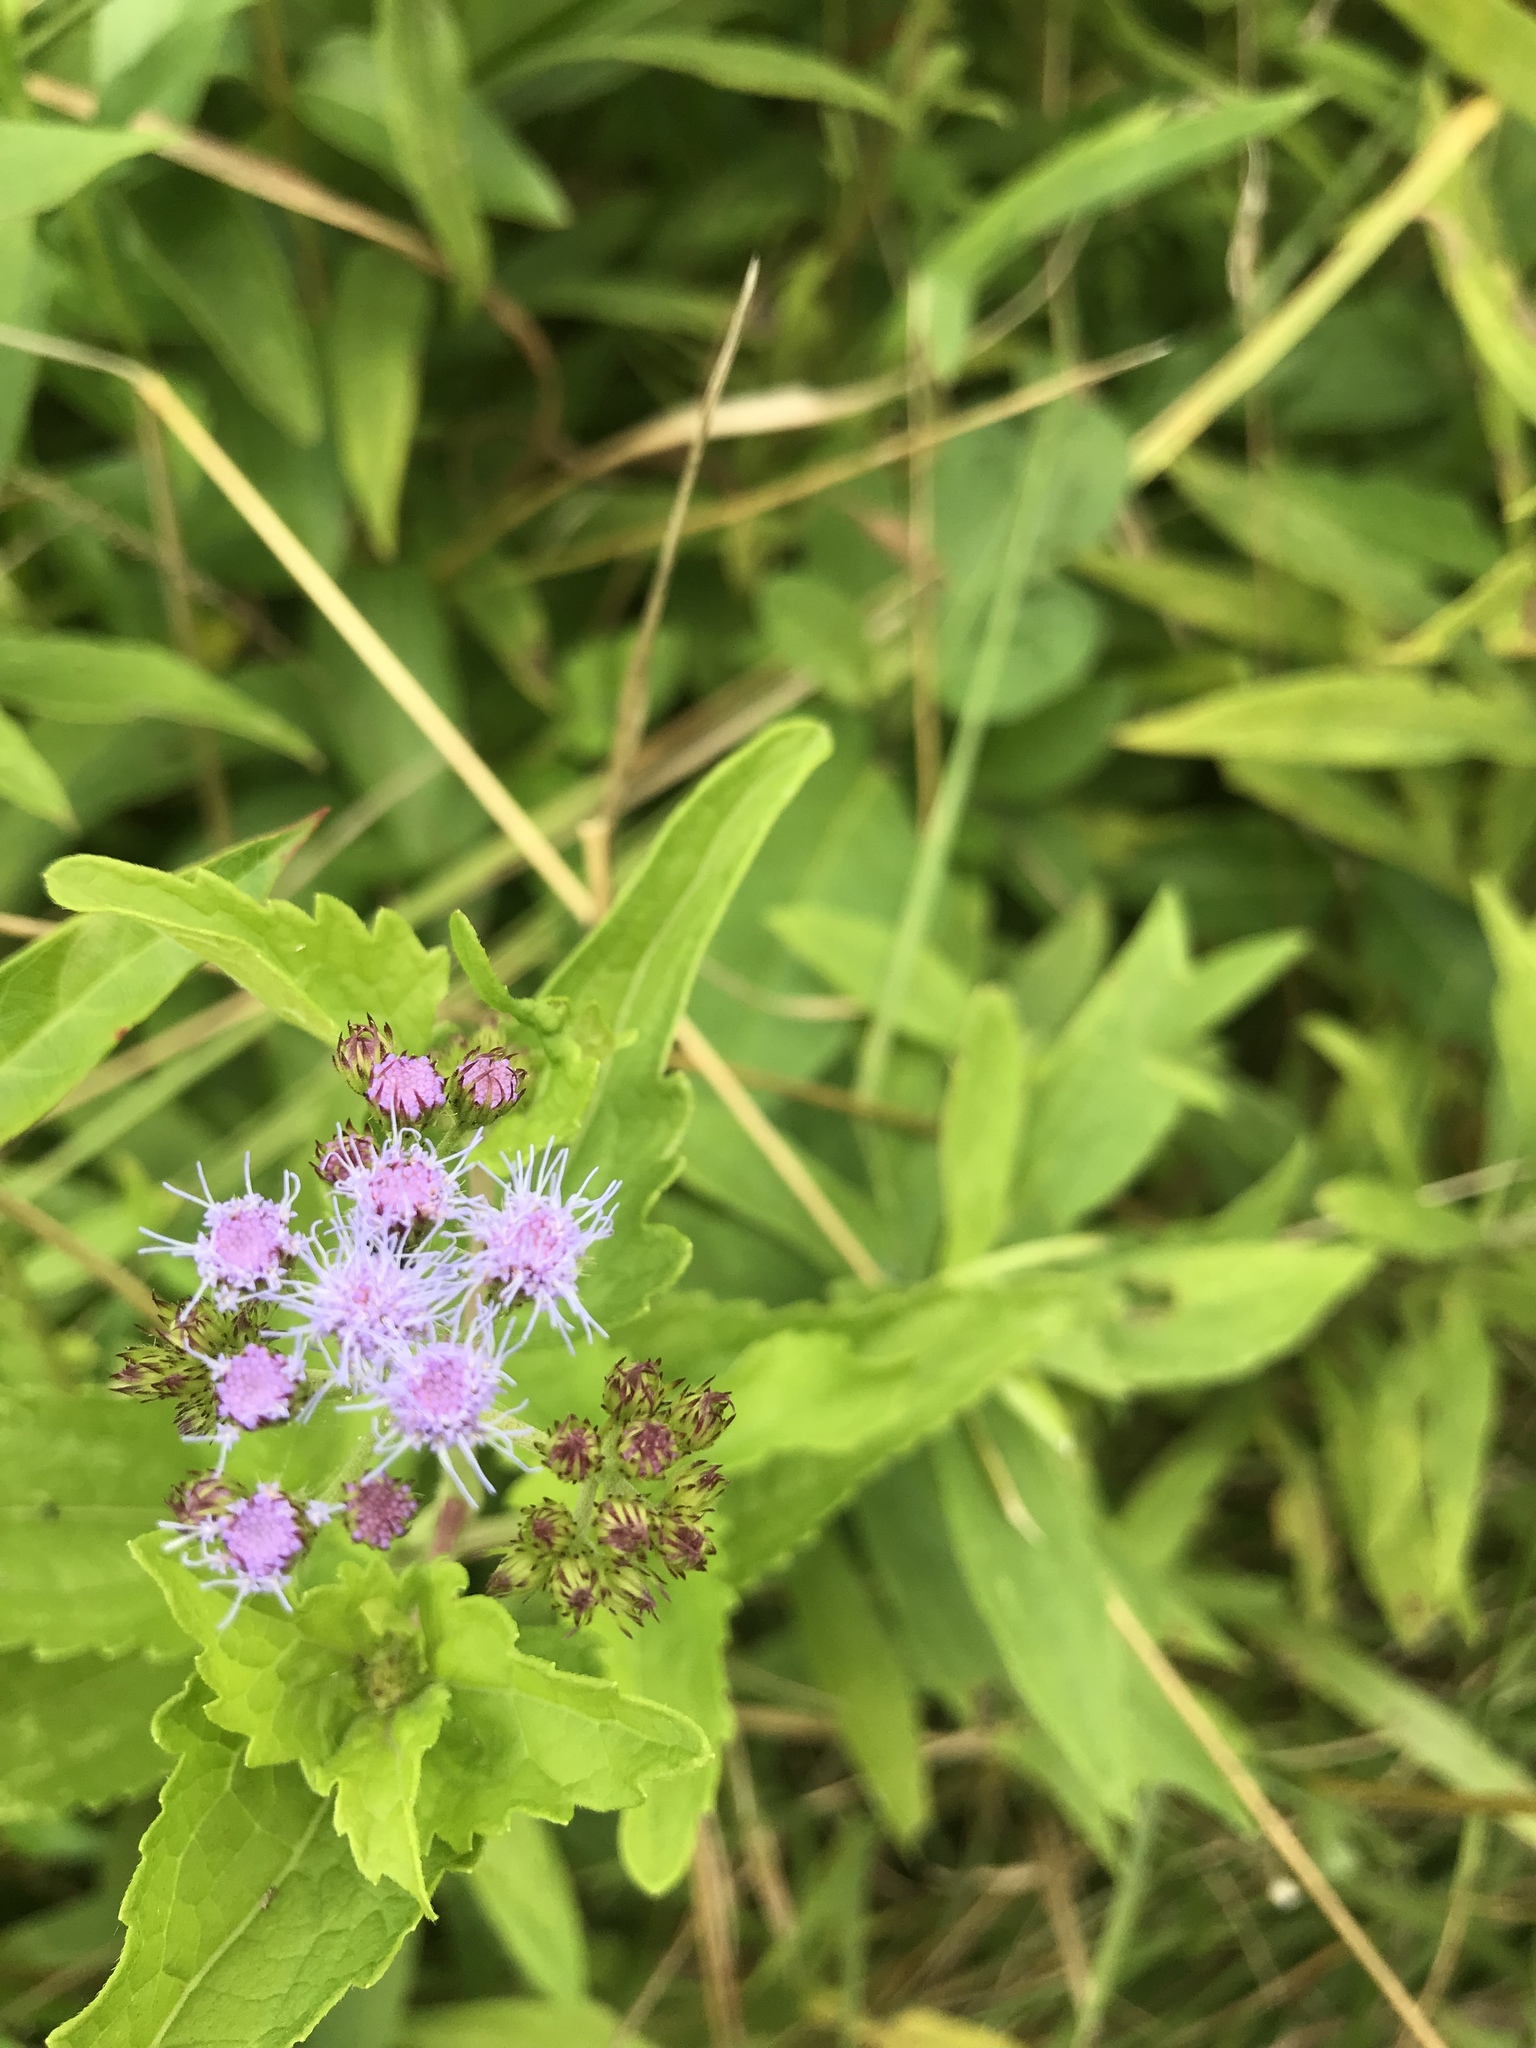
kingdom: Plantae
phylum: Tracheophyta
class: Magnoliopsida
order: Asterales
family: Asteraceae
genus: Conoclinium
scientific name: Conoclinium coelestinum
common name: Blue mistflower
